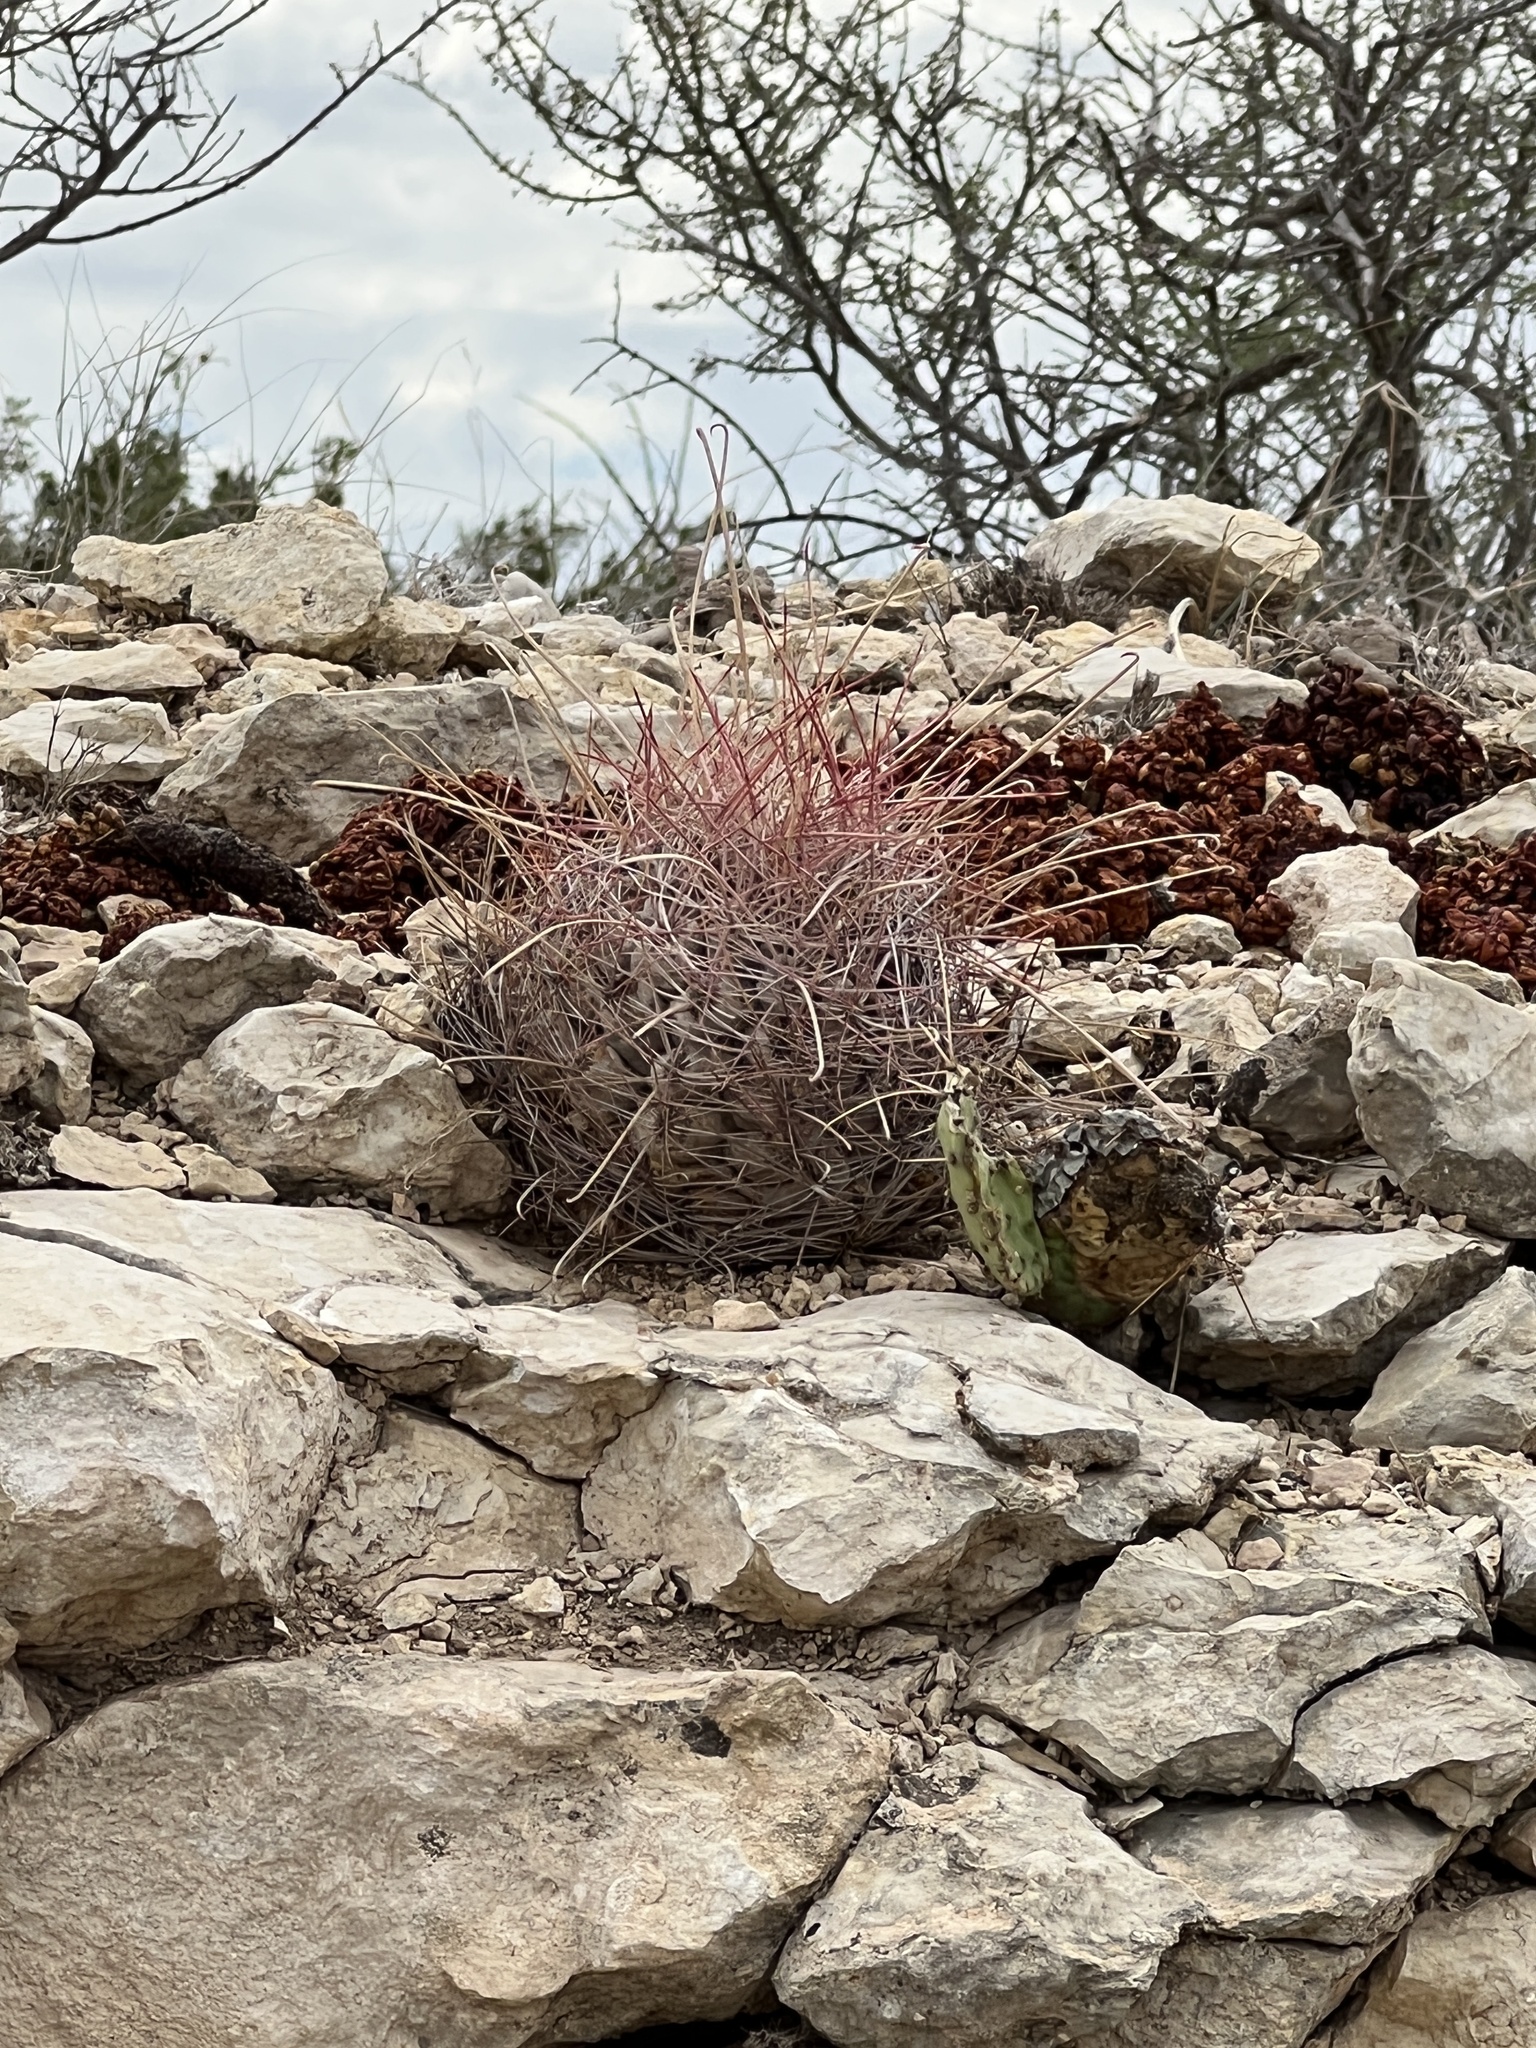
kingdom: Plantae
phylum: Tracheophyta
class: Magnoliopsida
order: Caryophyllales
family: Cactaceae
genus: Bisnaga
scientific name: Bisnaga hamatacantha
